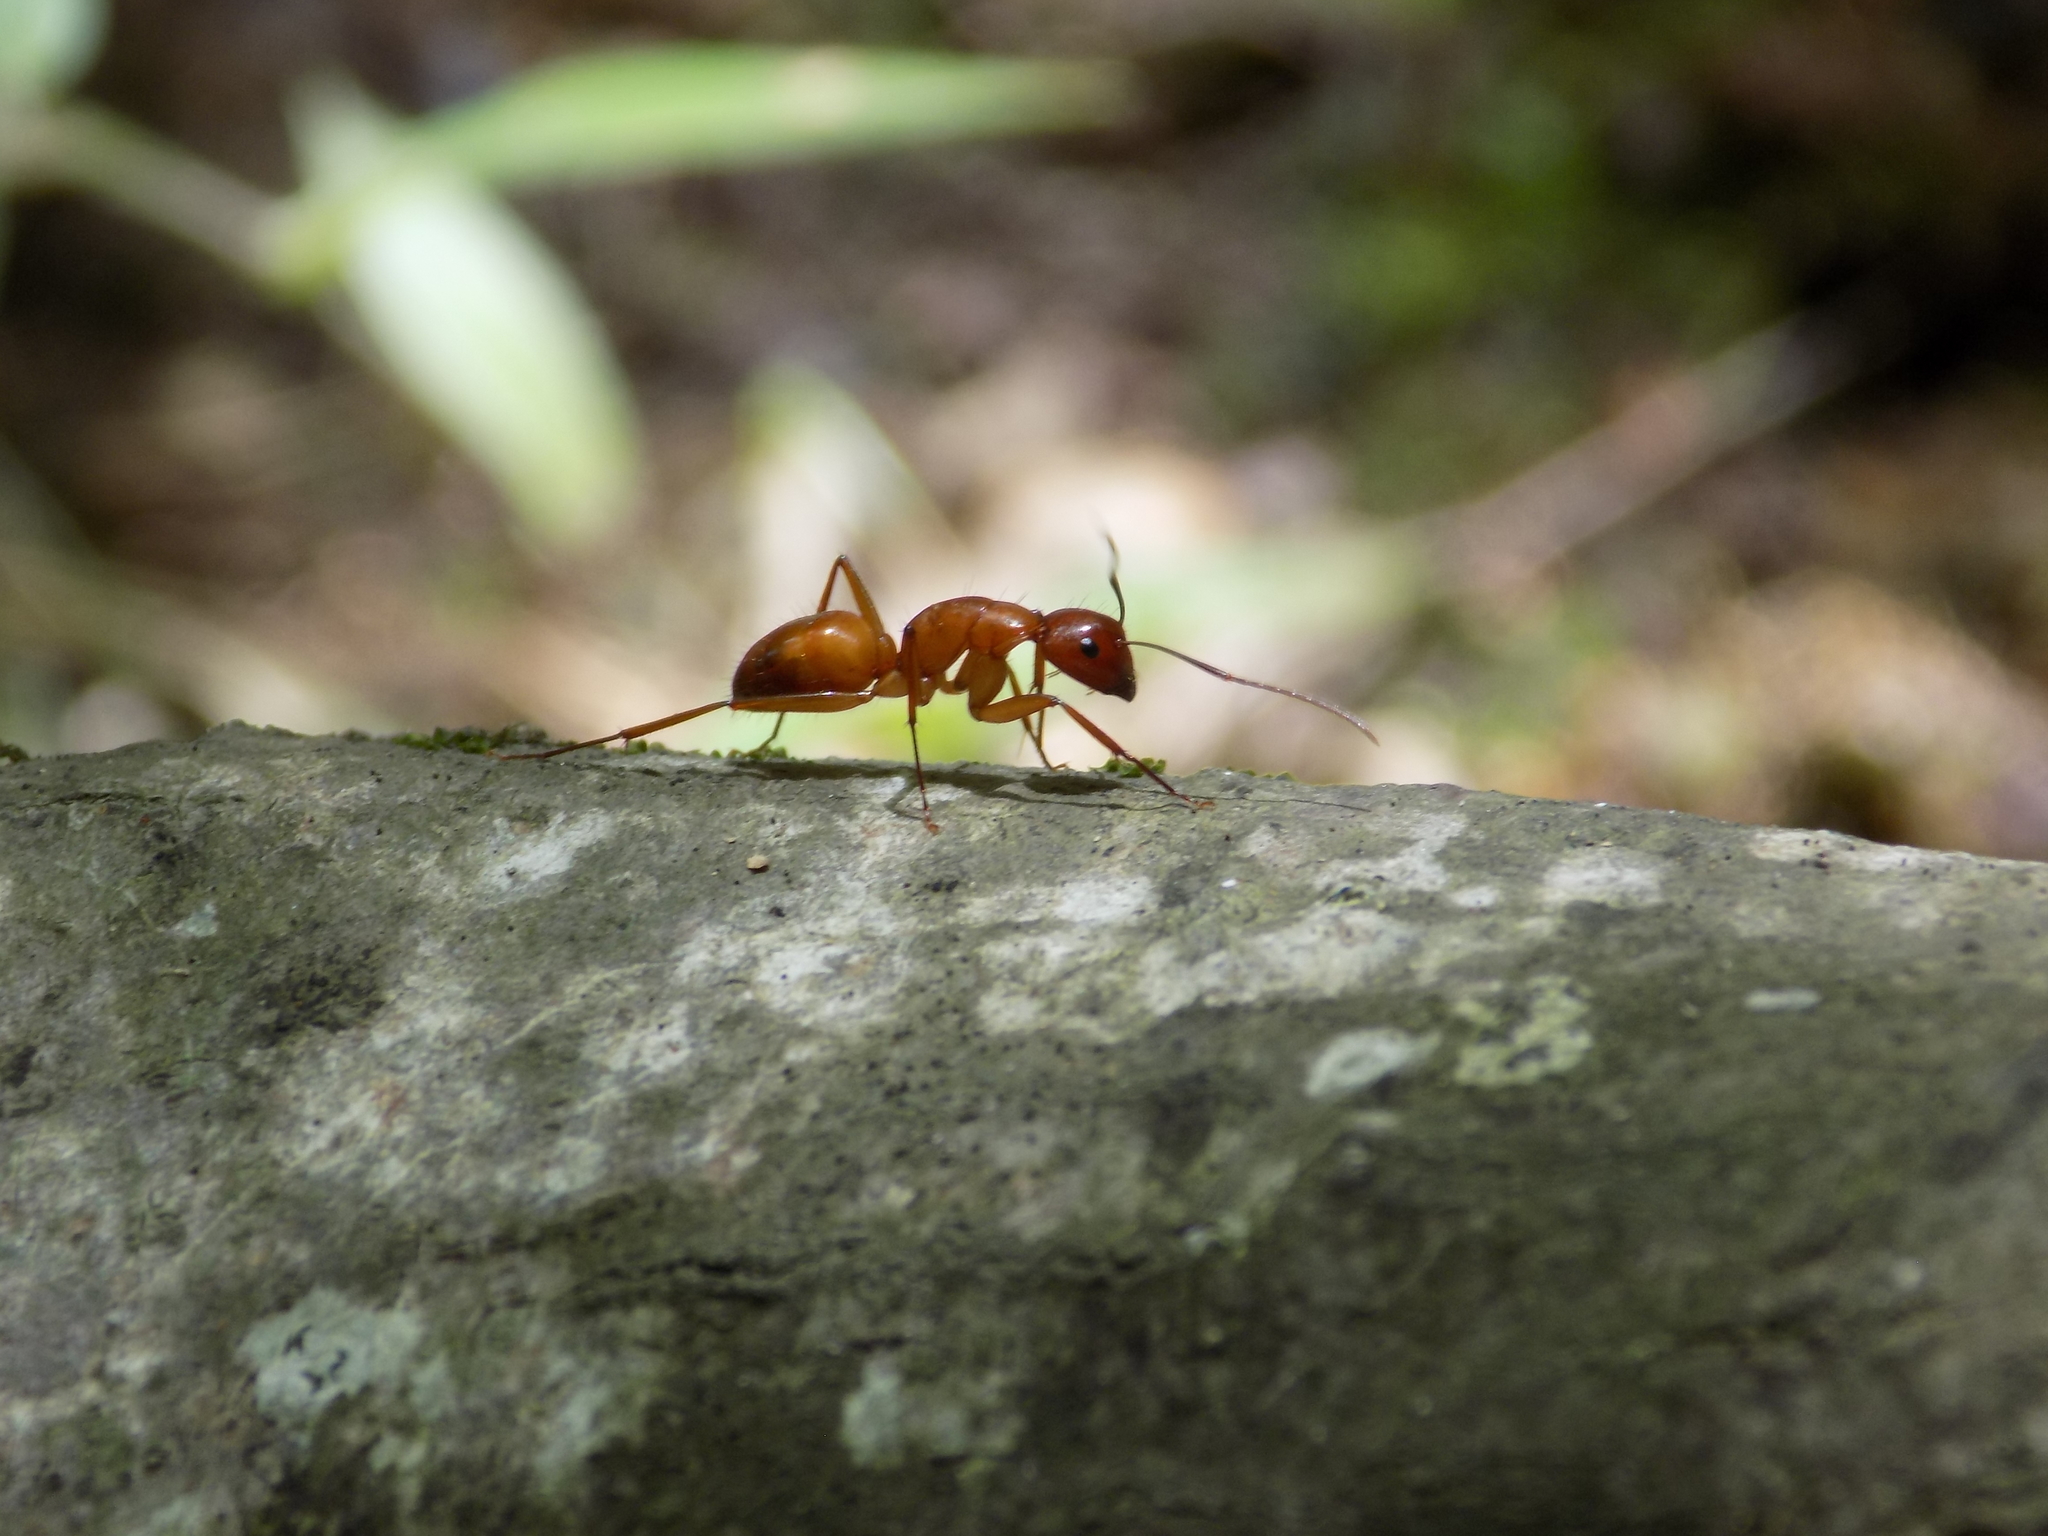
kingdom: Animalia
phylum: Arthropoda
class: Insecta
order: Hymenoptera
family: Formicidae
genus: Camponotus
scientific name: Camponotus castaneus
